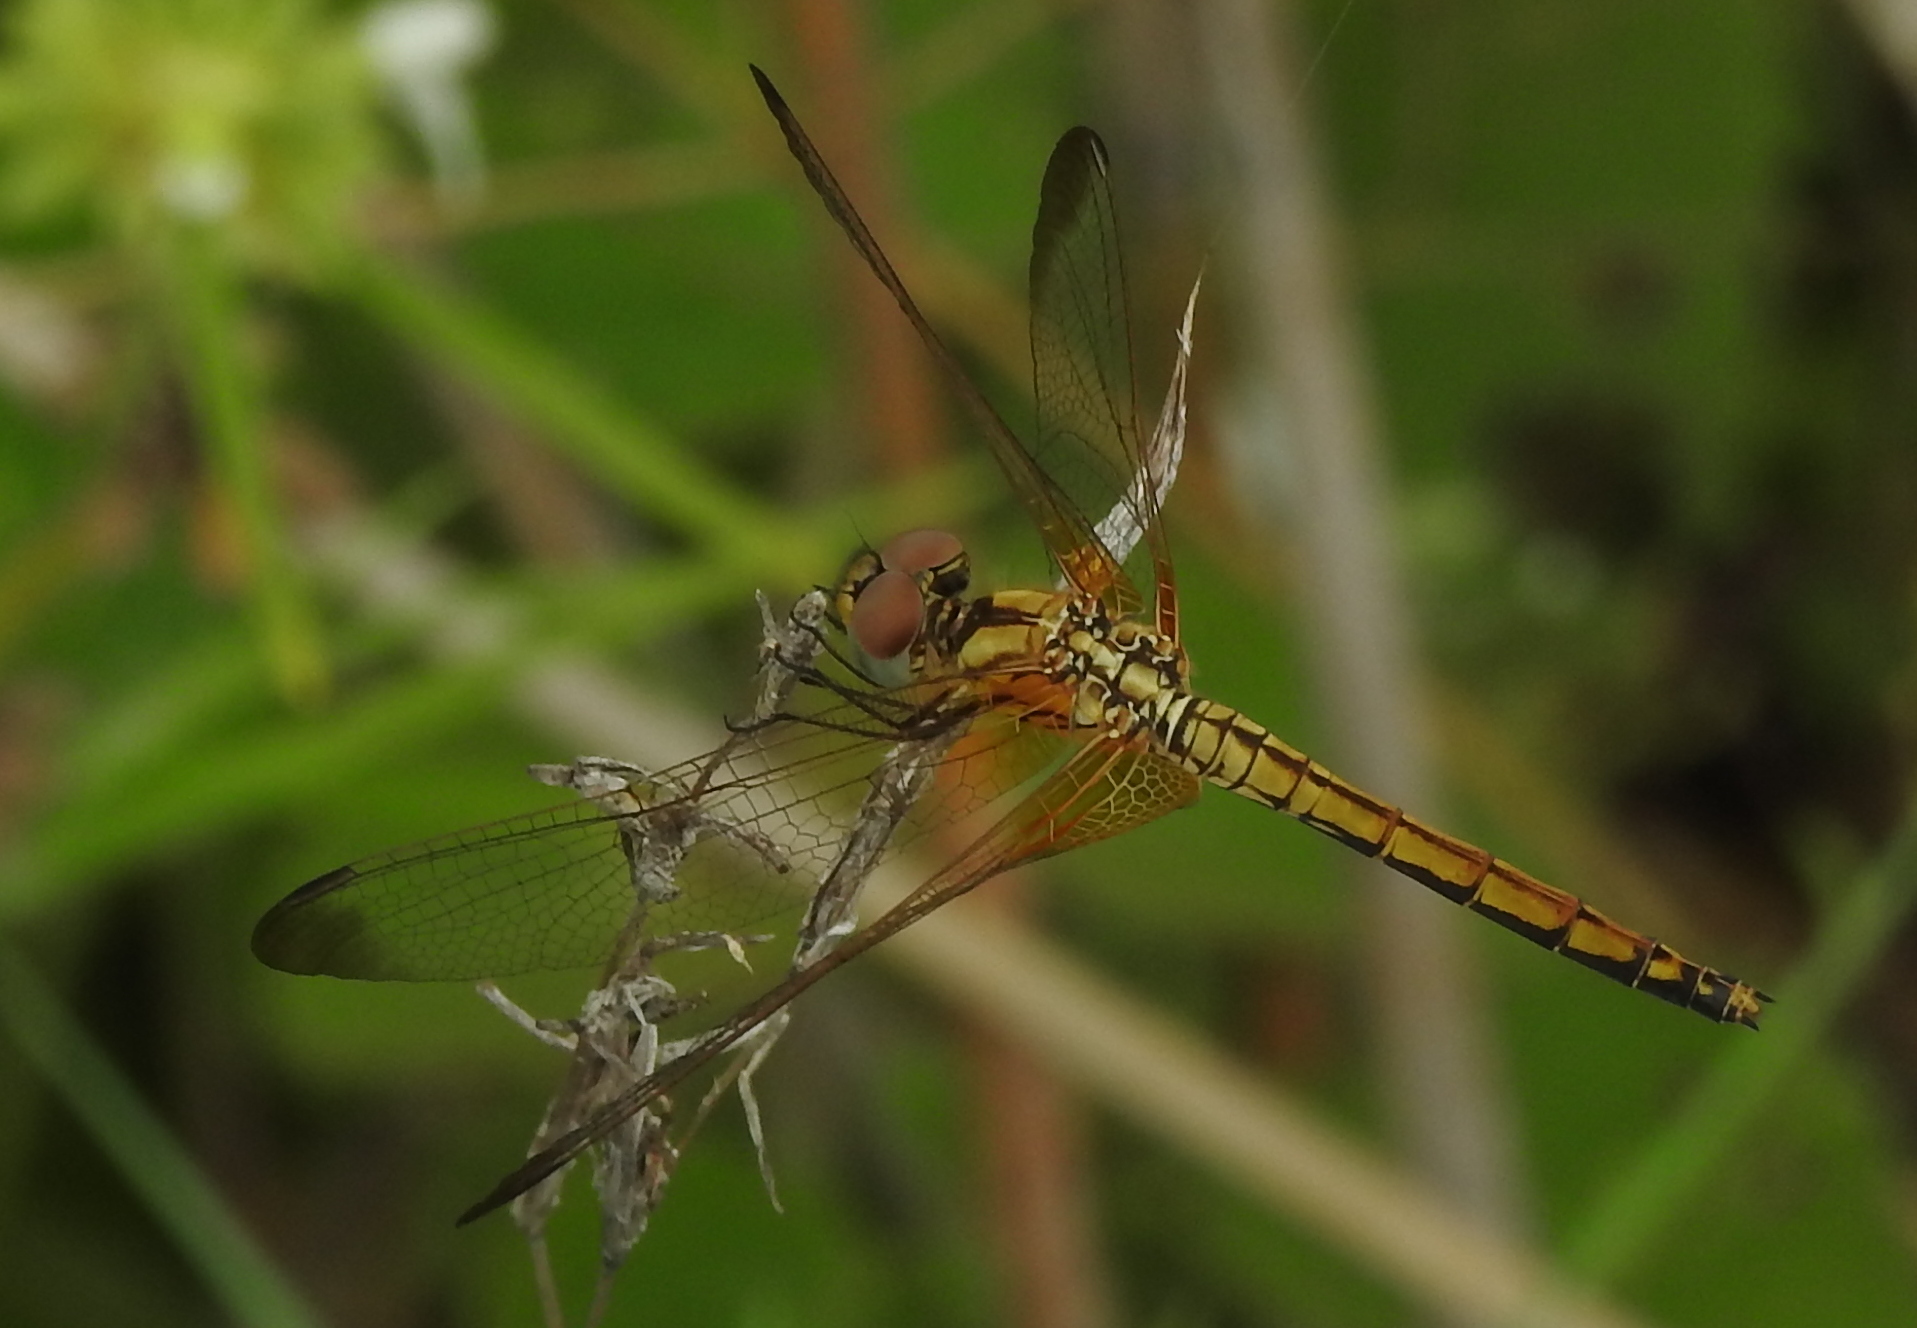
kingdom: Animalia
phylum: Arthropoda
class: Insecta
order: Odonata
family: Libellulidae
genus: Trithemis
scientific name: Trithemis aurora
